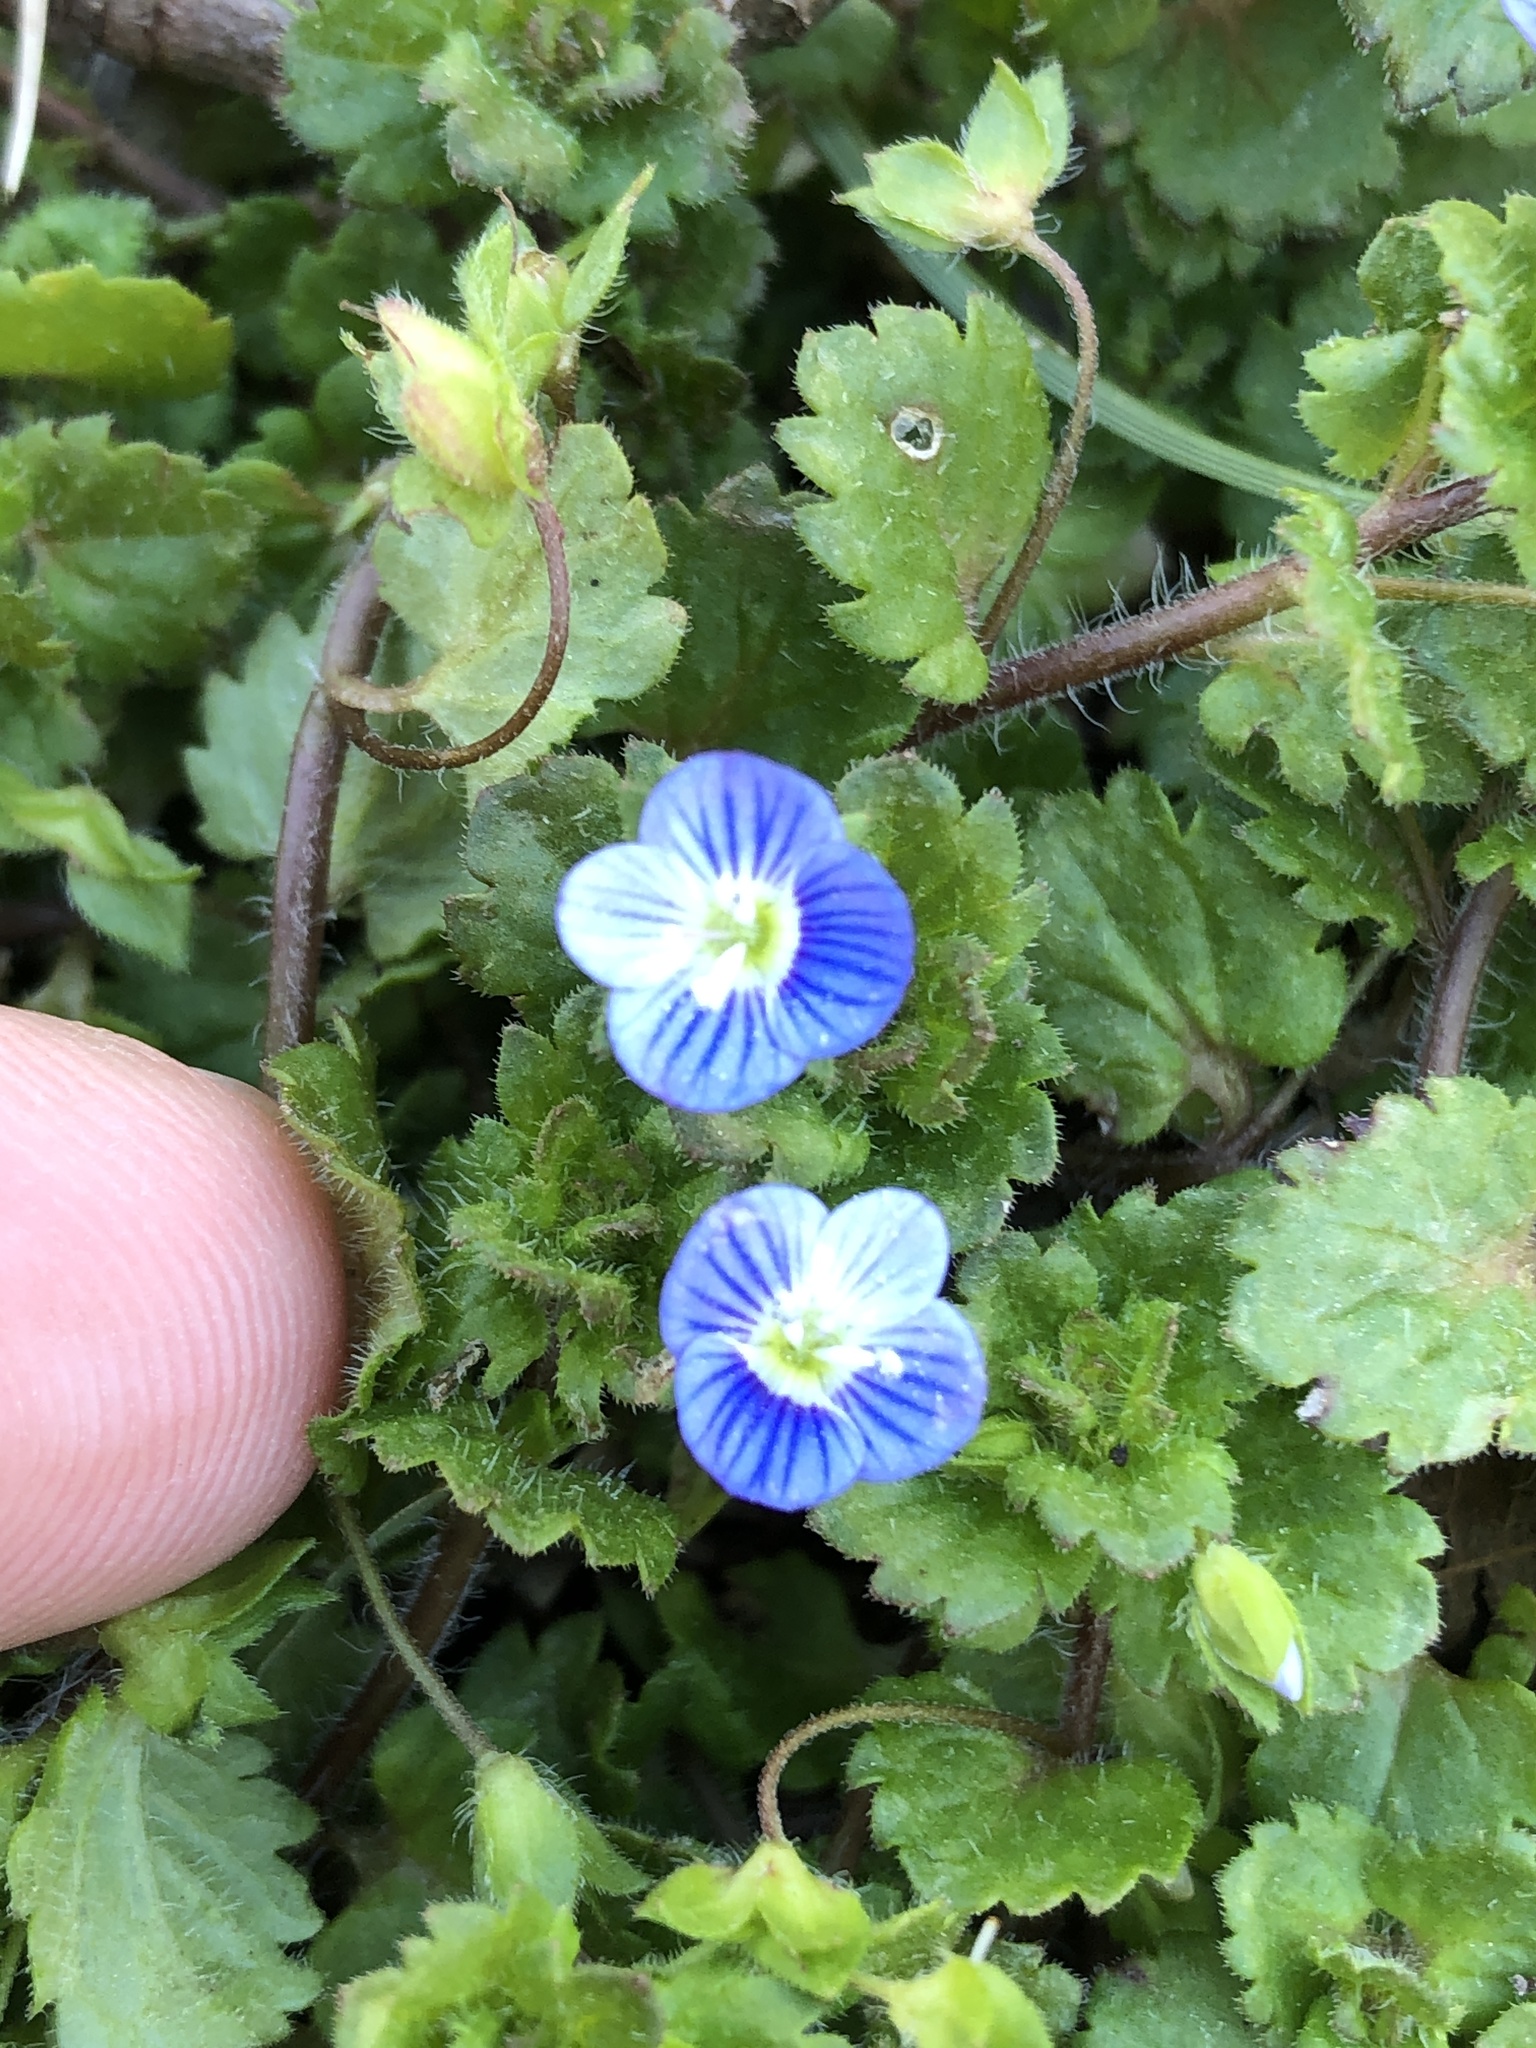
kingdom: Plantae
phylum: Tracheophyta
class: Magnoliopsida
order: Lamiales
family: Plantaginaceae
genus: Veronica
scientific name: Veronica persica
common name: Common field-speedwell
